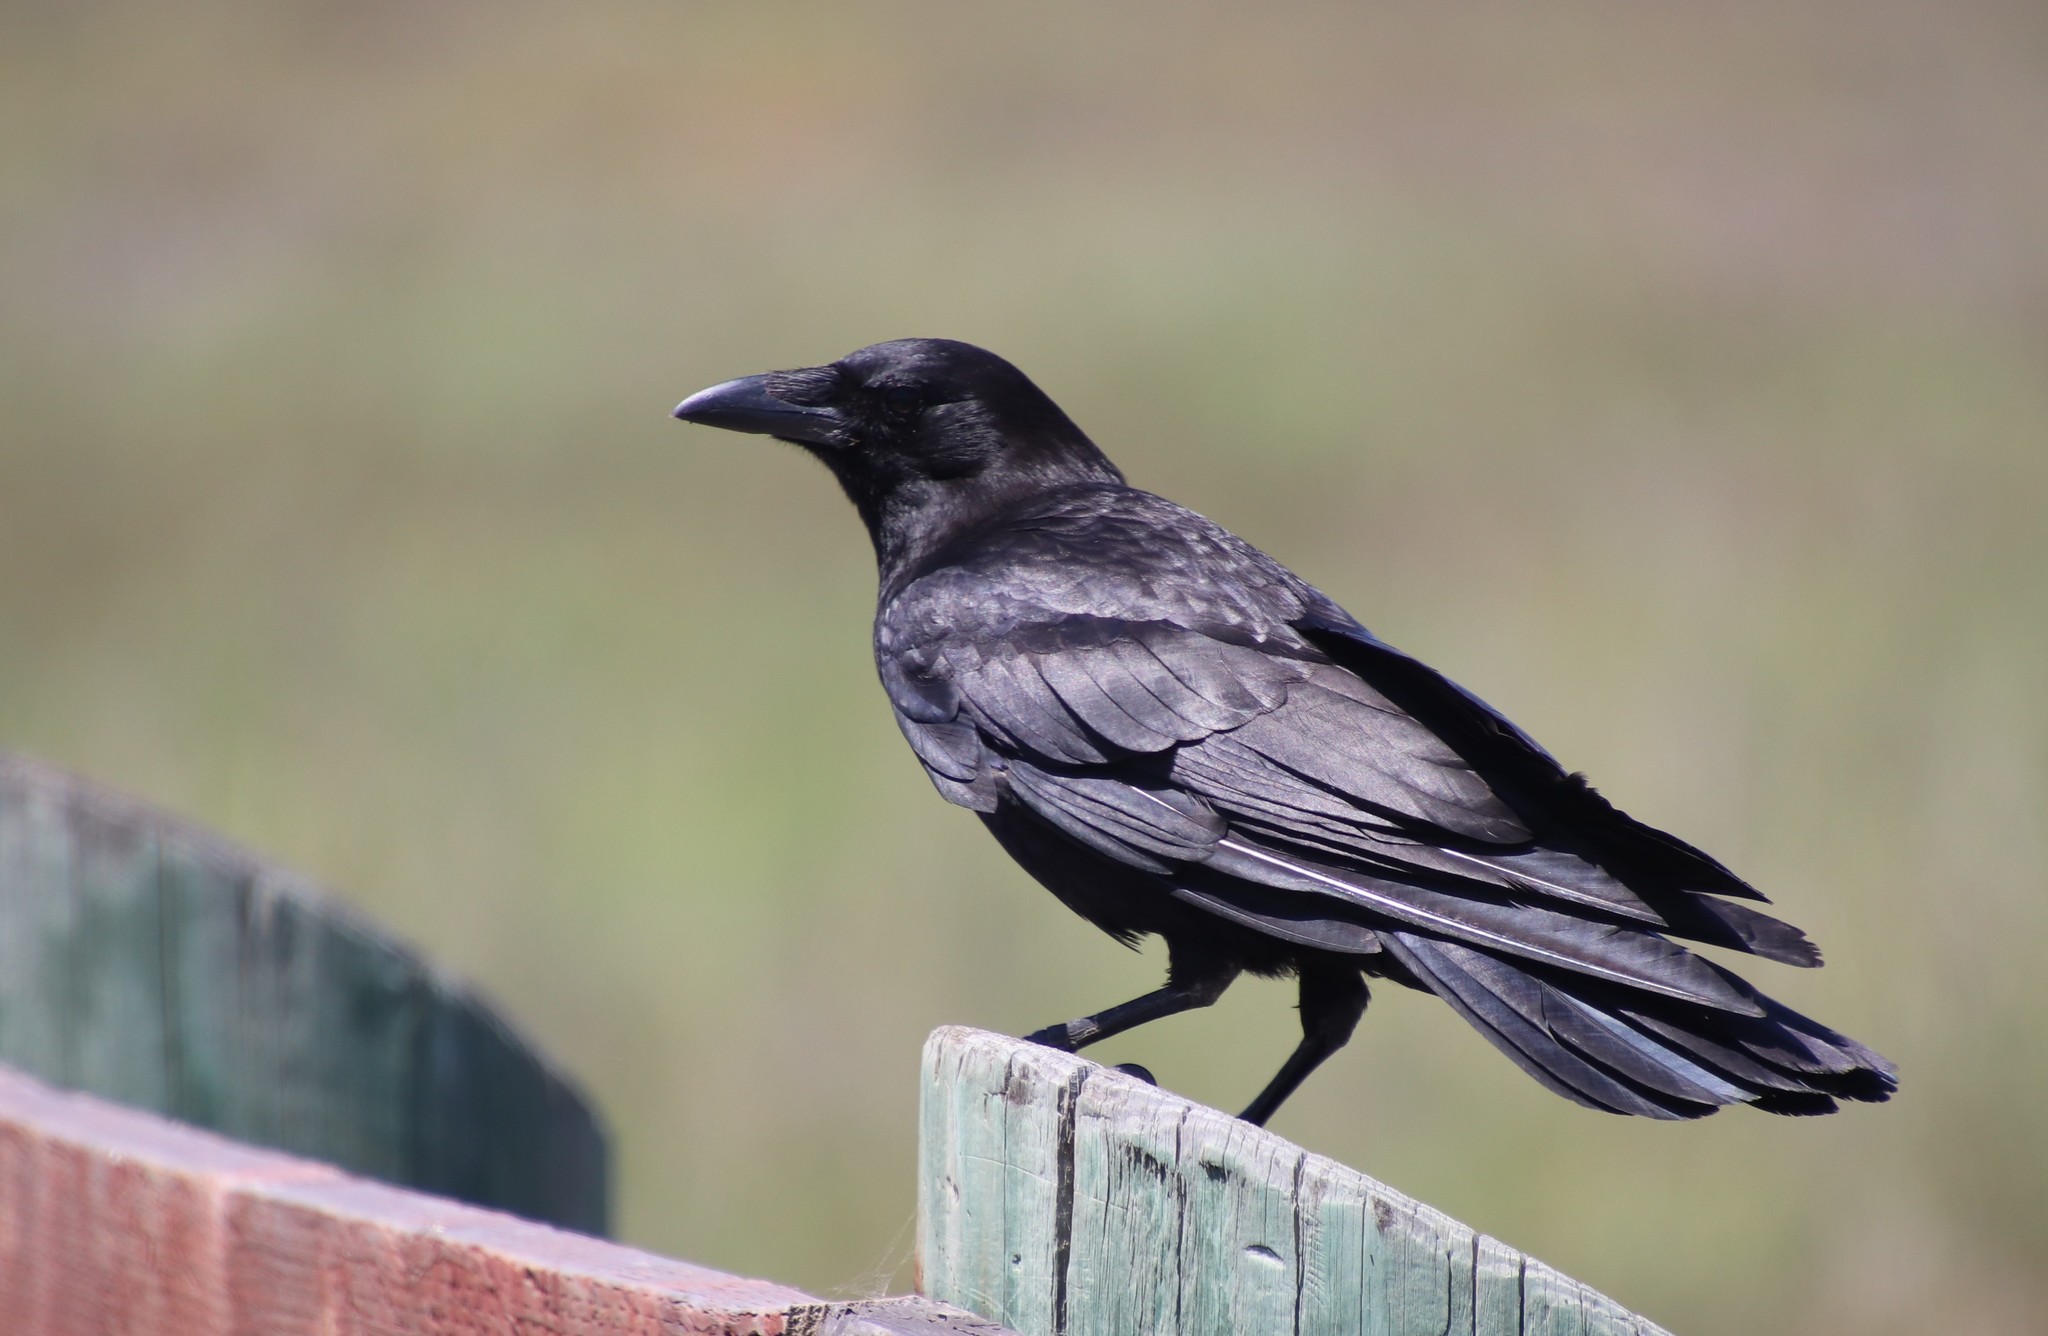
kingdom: Animalia
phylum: Chordata
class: Aves
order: Passeriformes
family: Corvidae
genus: Corvus
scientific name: Corvus brachyrhynchos
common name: American crow
